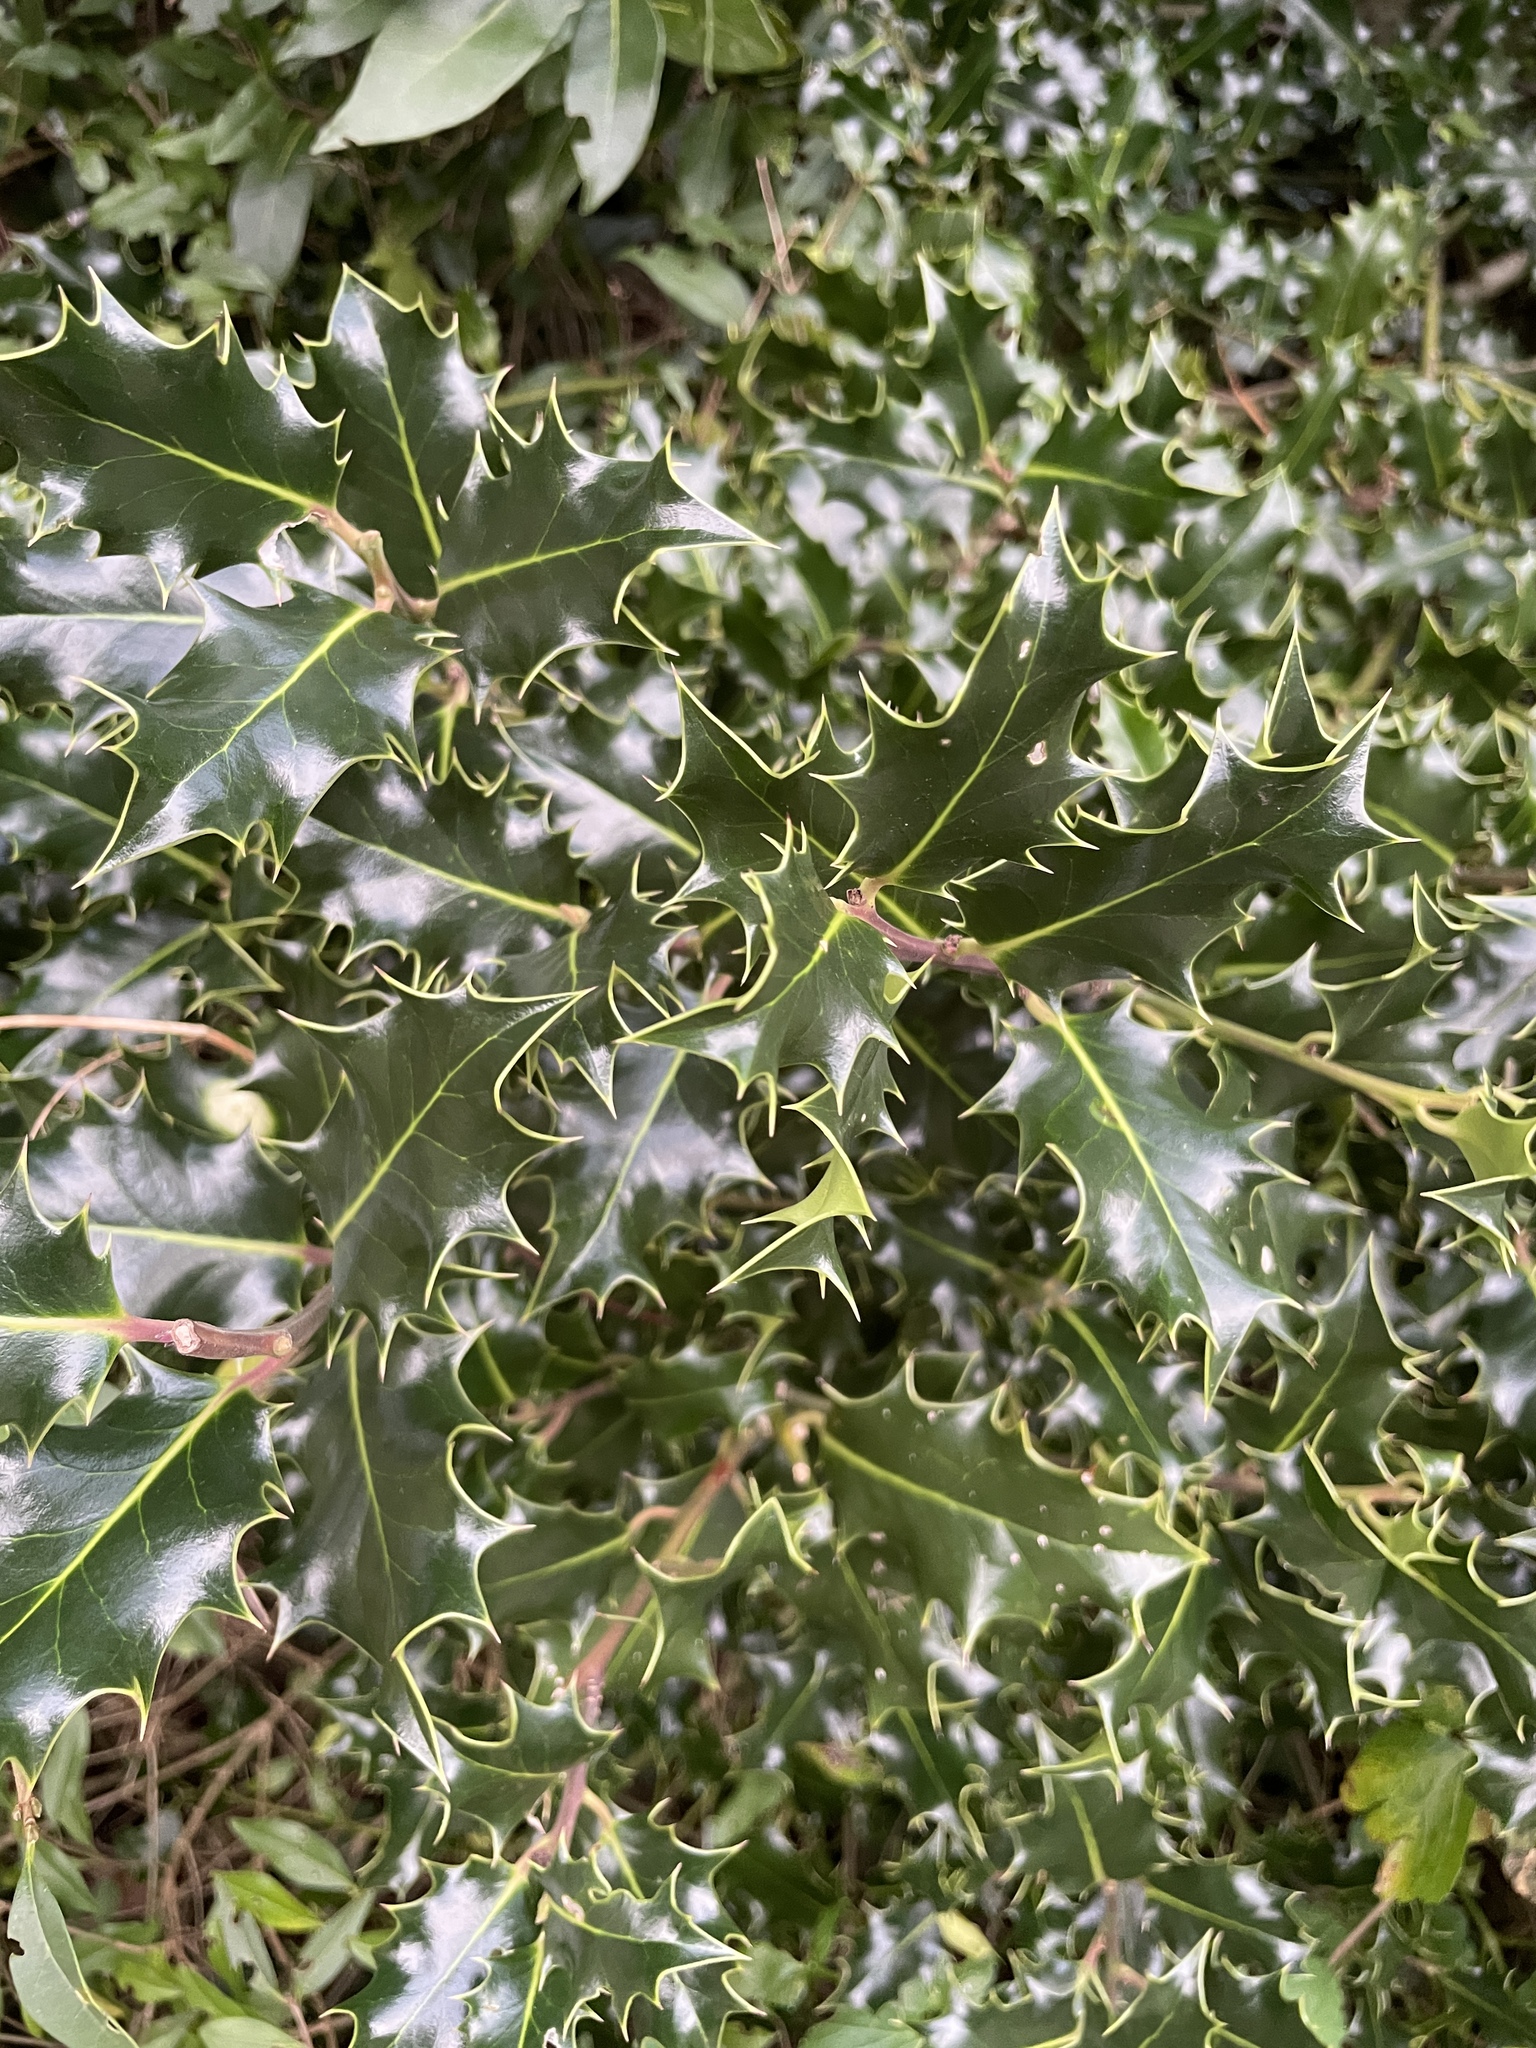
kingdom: Plantae
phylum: Tracheophyta
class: Magnoliopsida
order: Aquifoliales
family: Aquifoliaceae
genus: Ilex
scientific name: Ilex aquifolium
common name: English holly
